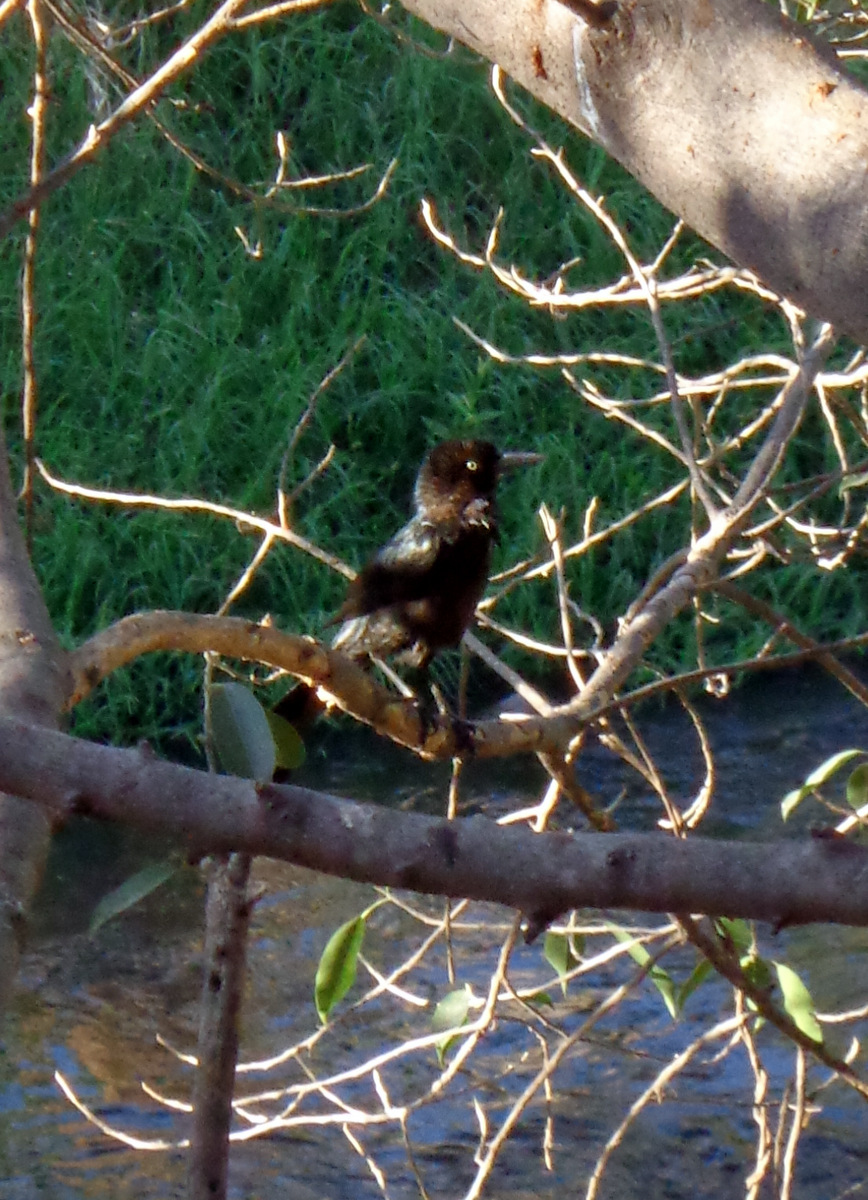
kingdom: Animalia
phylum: Chordata
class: Aves
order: Passeriformes
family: Icteridae
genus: Quiscalus
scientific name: Quiscalus mexicanus
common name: Great-tailed grackle
